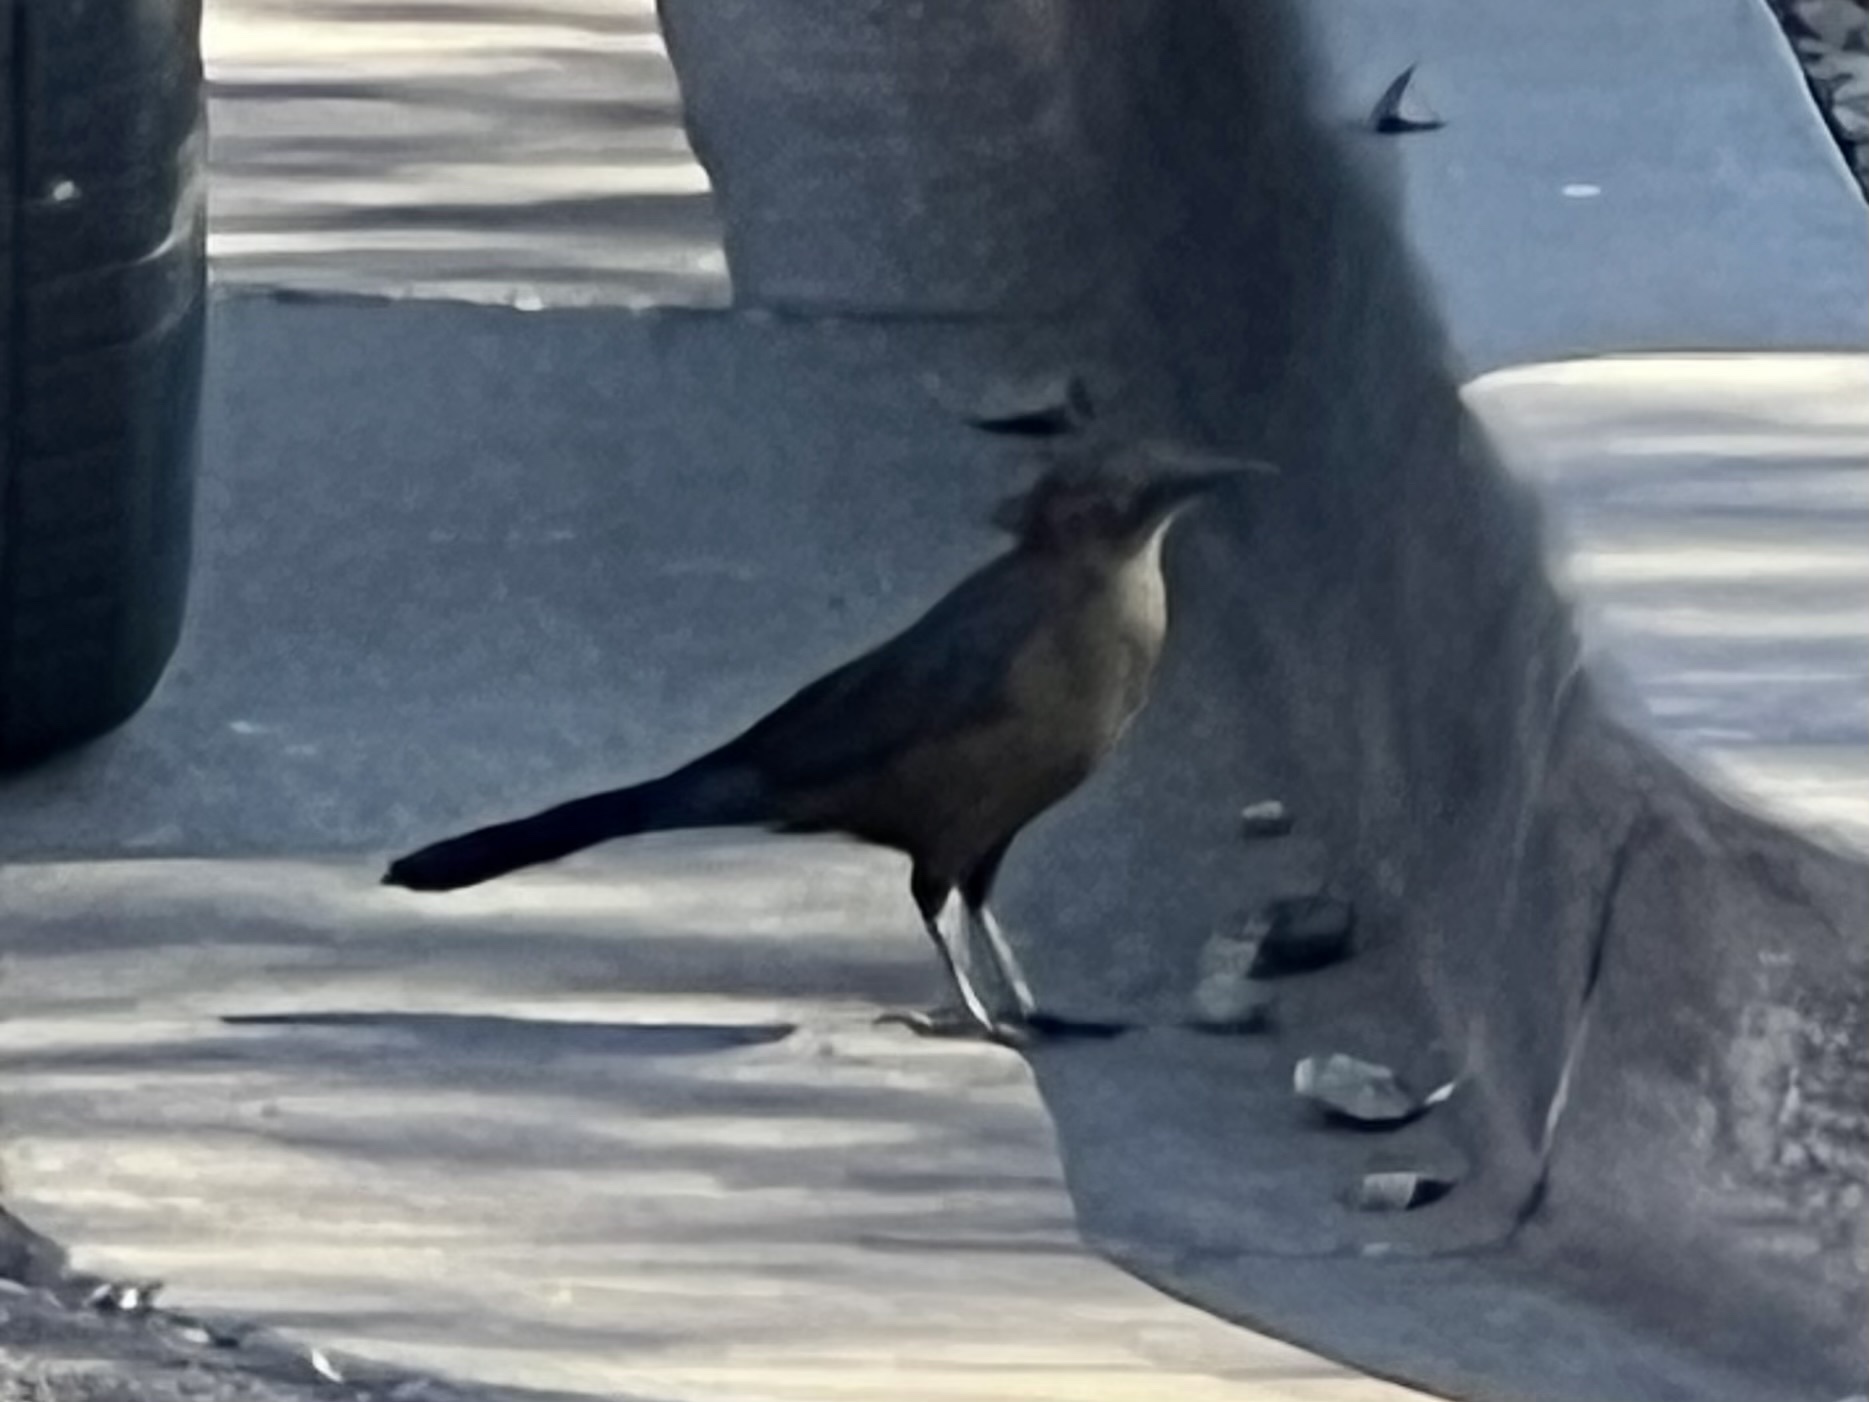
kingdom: Animalia
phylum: Chordata
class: Aves
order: Passeriformes
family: Icteridae
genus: Quiscalus
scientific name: Quiscalus mexicanus
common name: Great-tailed grackle
